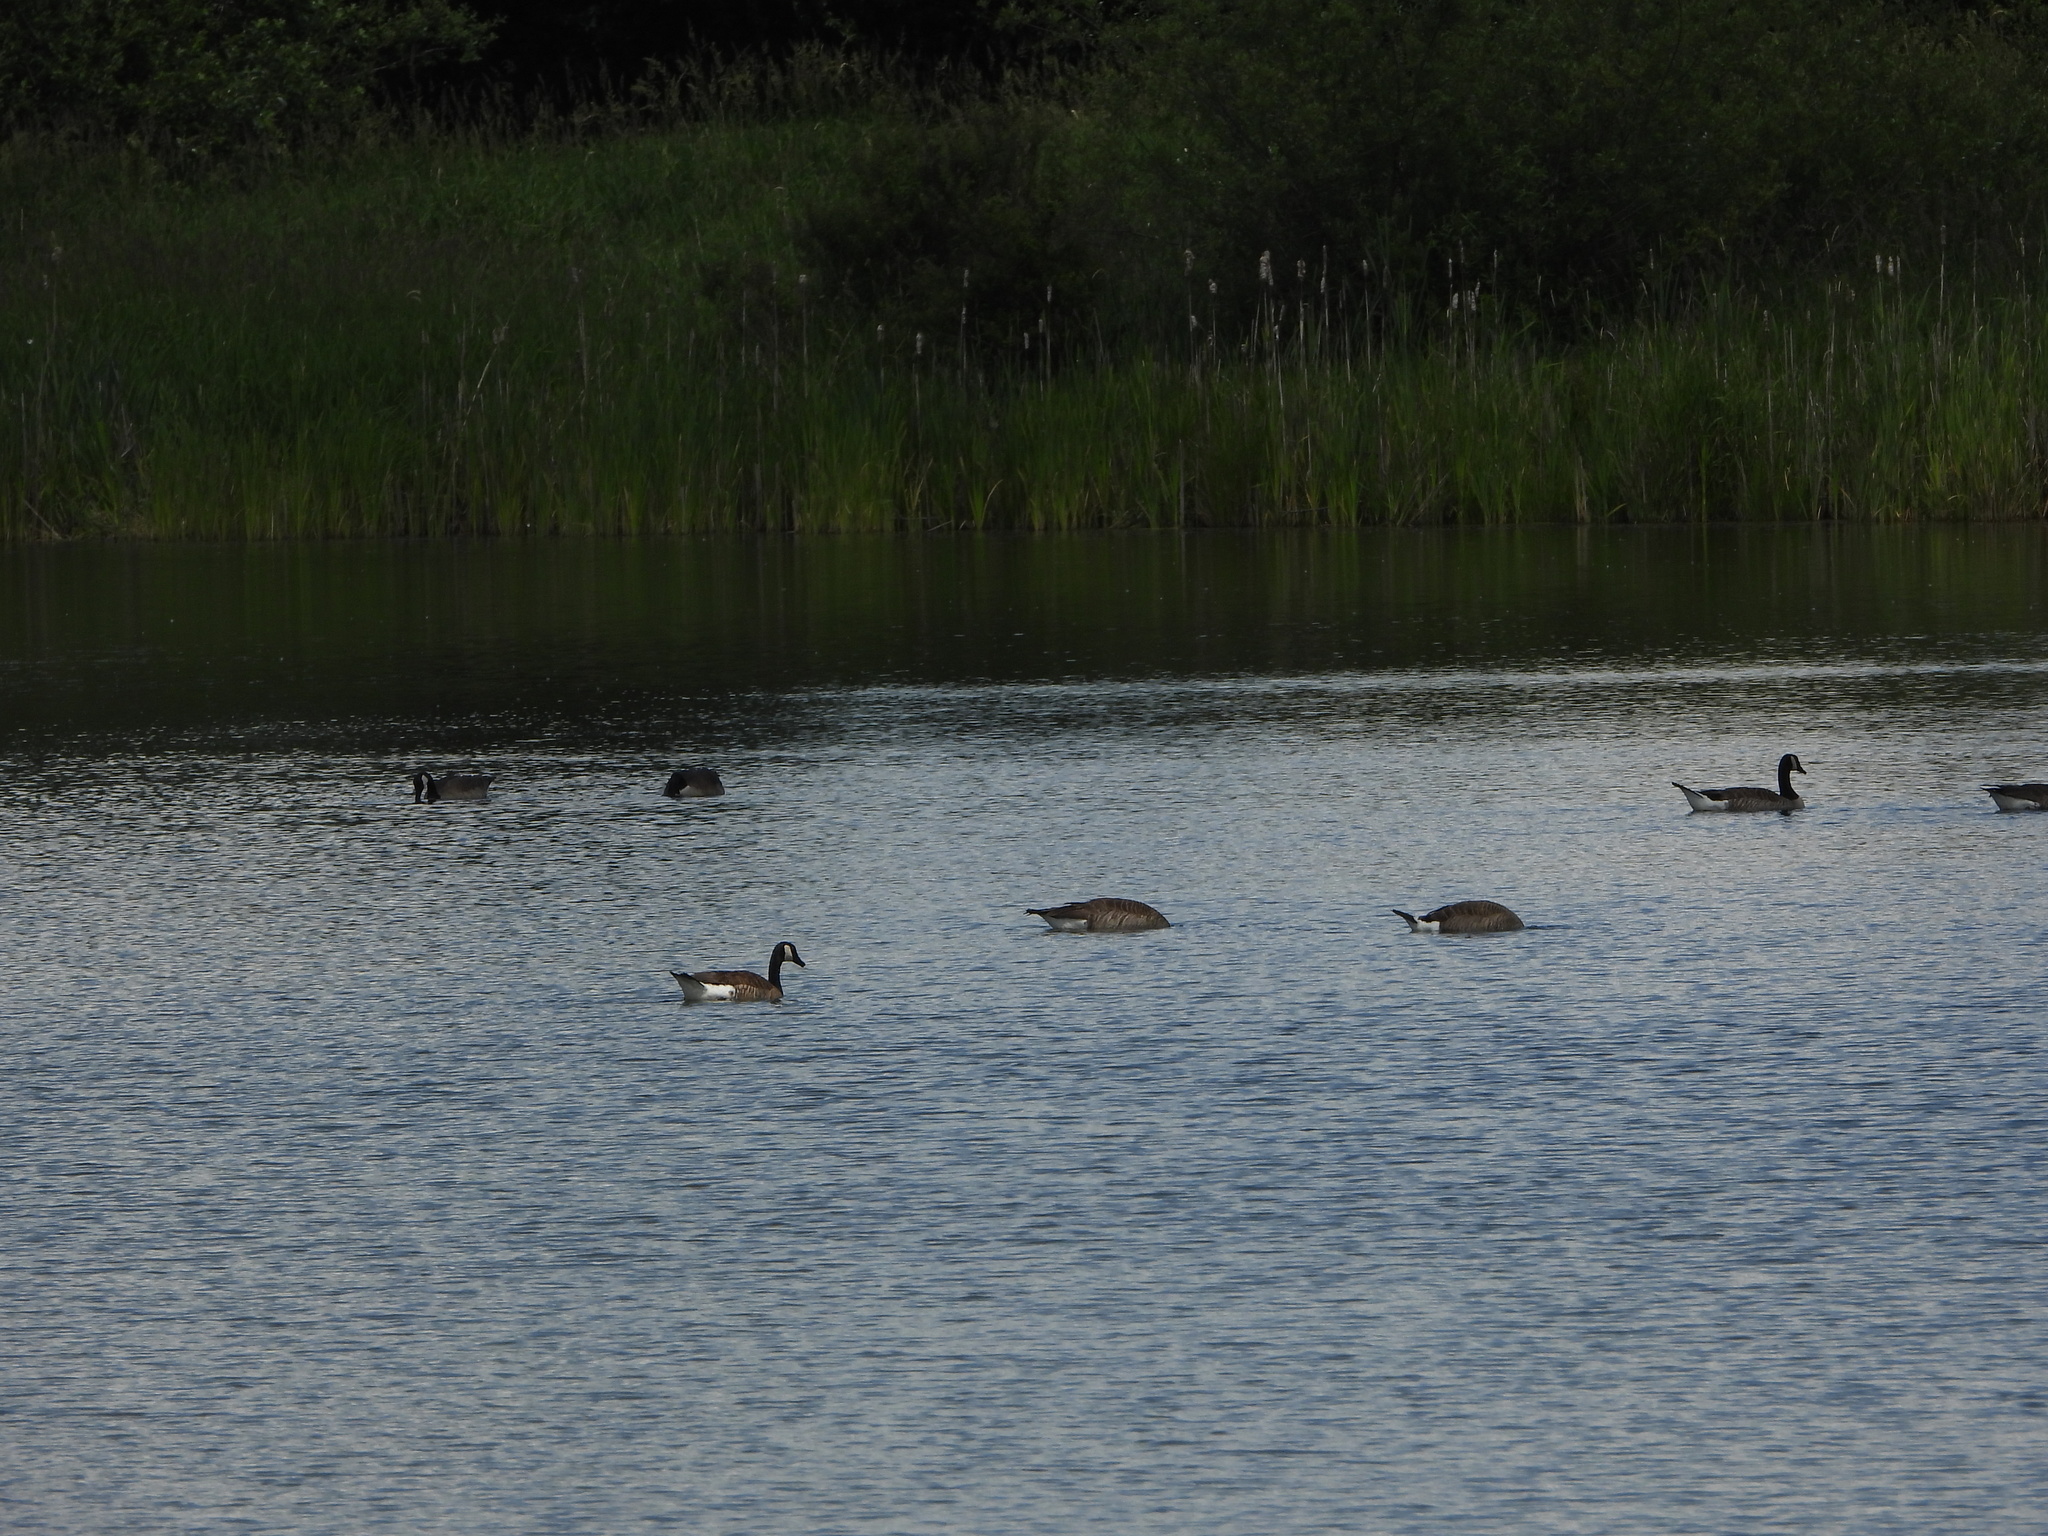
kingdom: Animalia
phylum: Chordata
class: Aves
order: Anseriformes
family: Anatidae
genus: Branta
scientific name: Branta canadensis
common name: Canada goose
